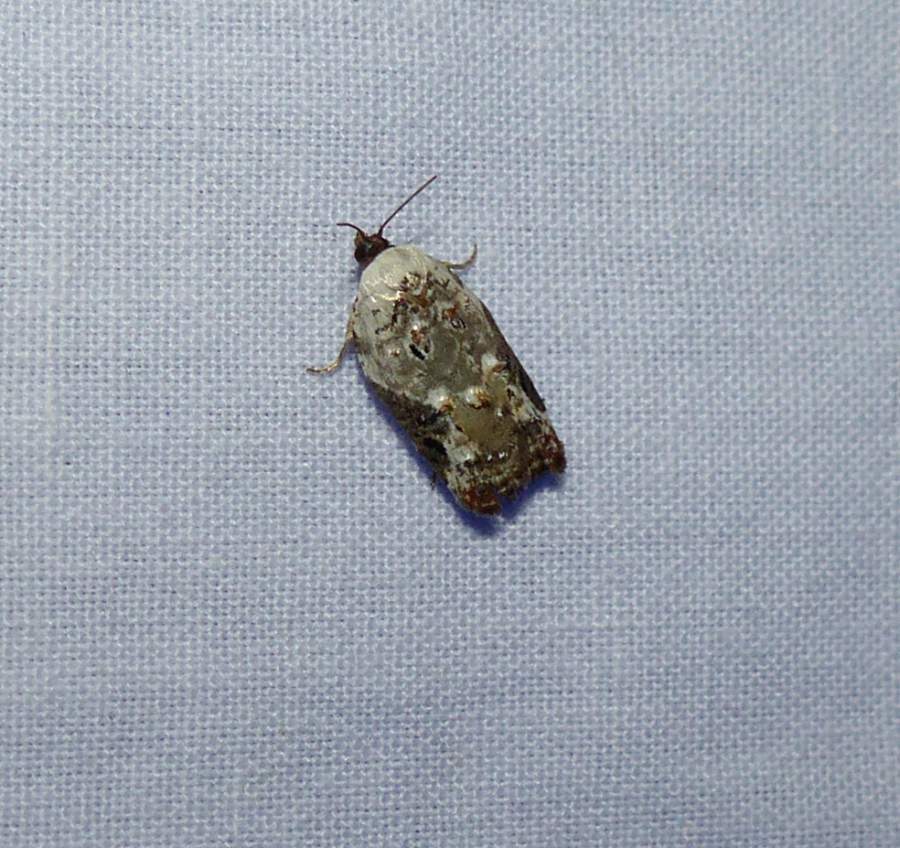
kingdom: Animalia
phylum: Arthropoda
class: Insecta
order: Lepidoptera
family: Tortricidae
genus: Acleris
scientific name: Acleris nivisellana
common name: Snowy-shouldered acleris moth
